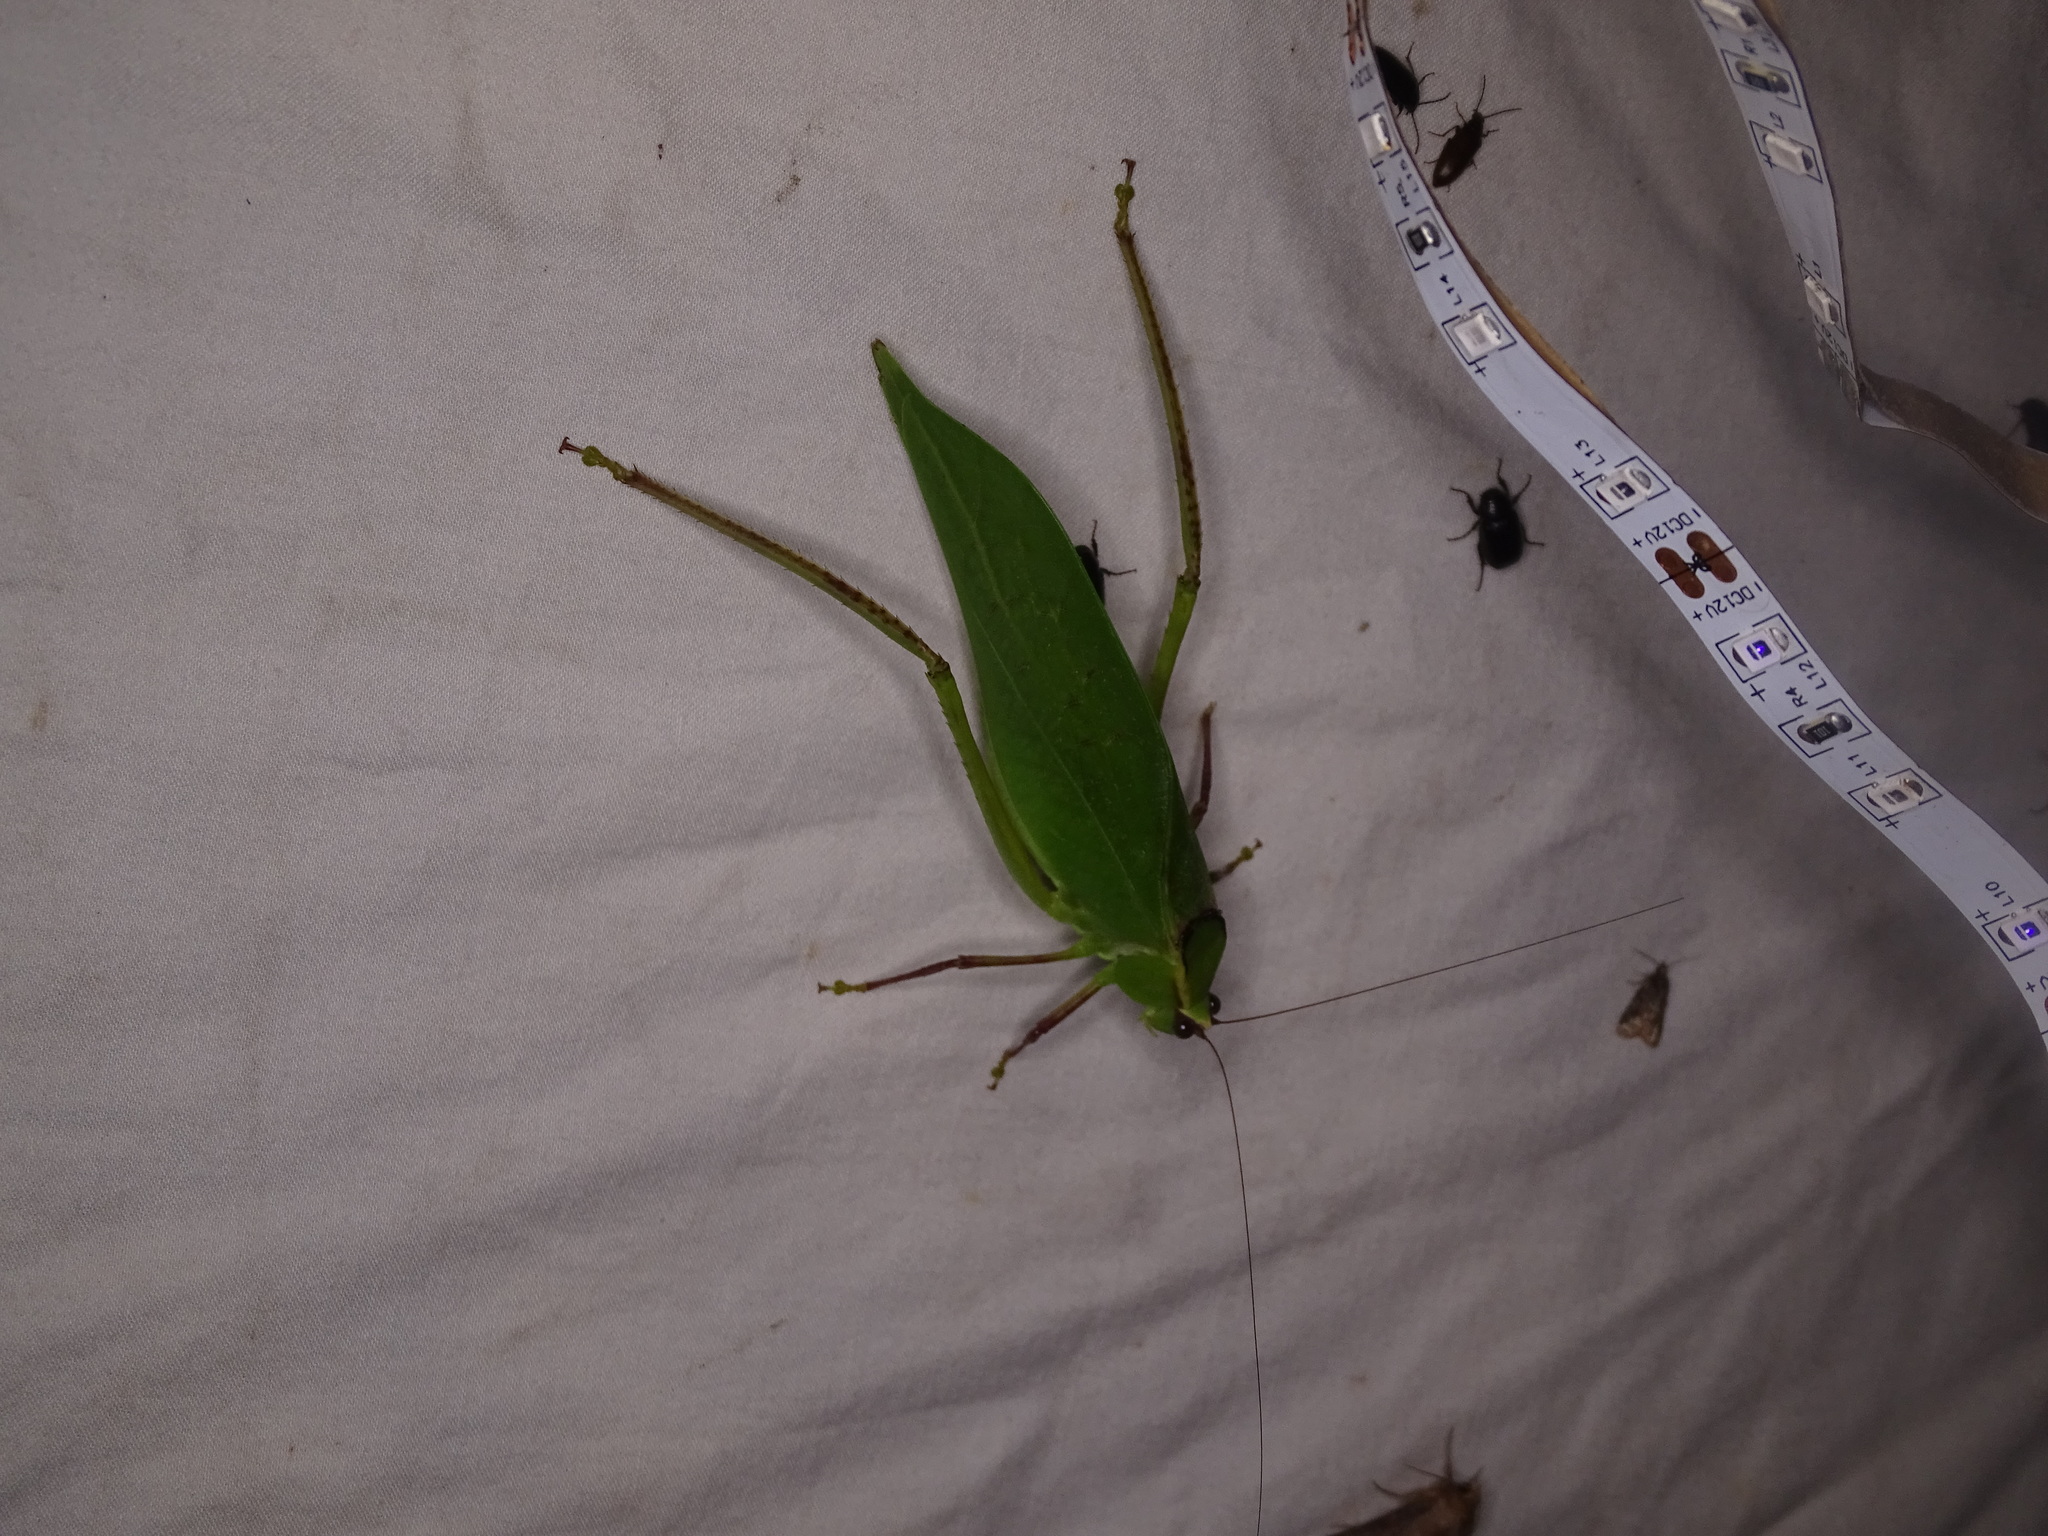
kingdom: Animalia
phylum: Arthropoda
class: Insecta
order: Orthoptera
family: Tettigoniidae
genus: Stilpnochlora
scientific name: Stilpnochlora couloniana
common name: Giant katydid
